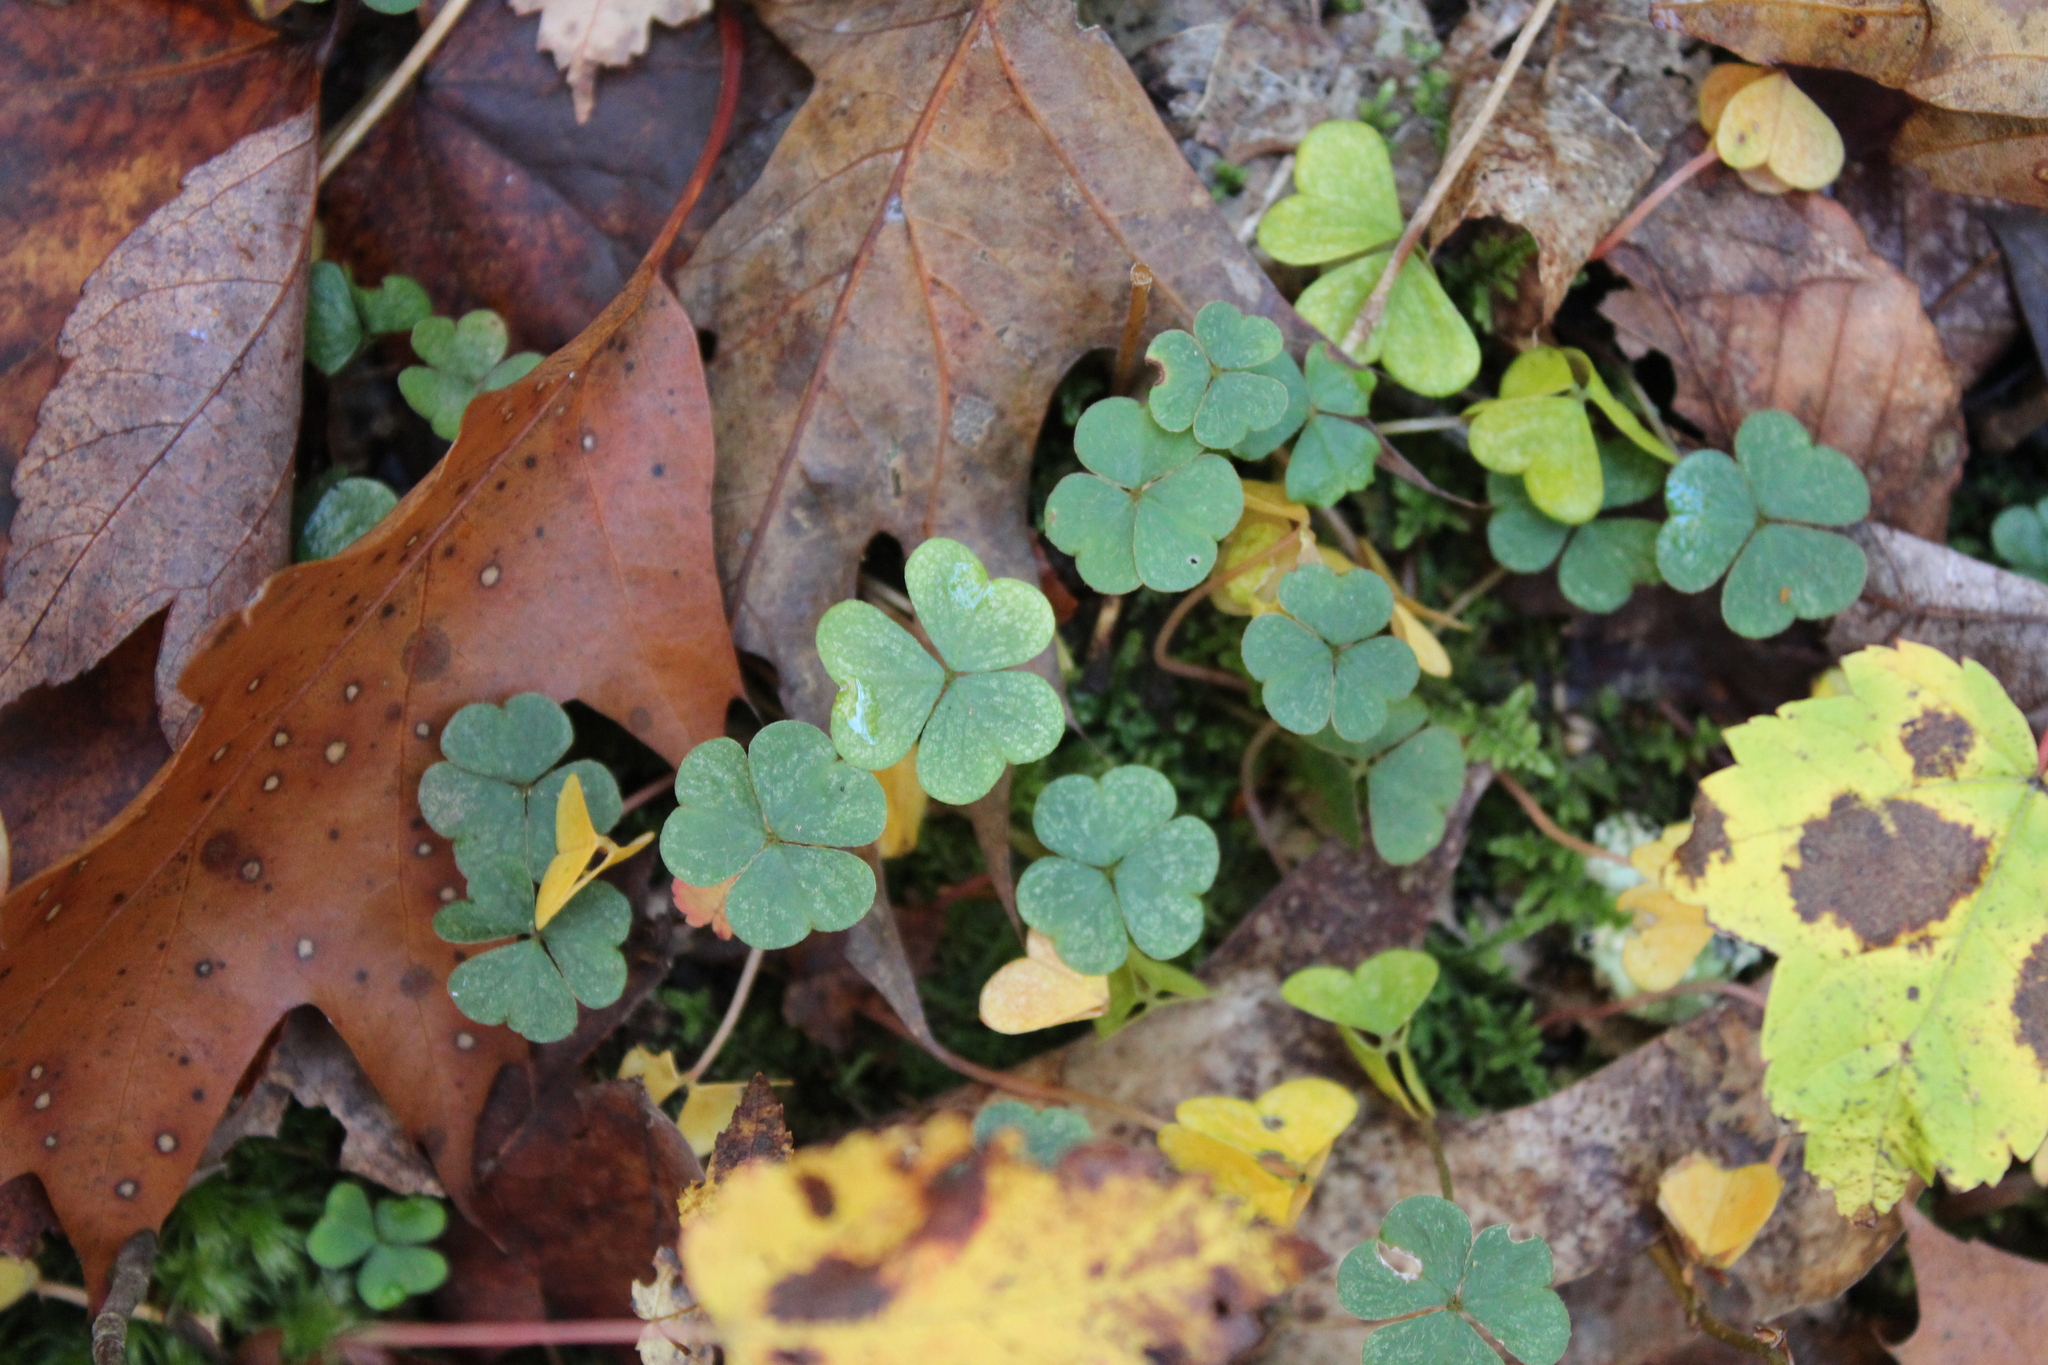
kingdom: Plantae
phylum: Tracheophyta
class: Magnoliopsida
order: Oxalidales
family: Oxalidaceae
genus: Oxalis
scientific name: Oxalis montana
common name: American wood-sorrel
